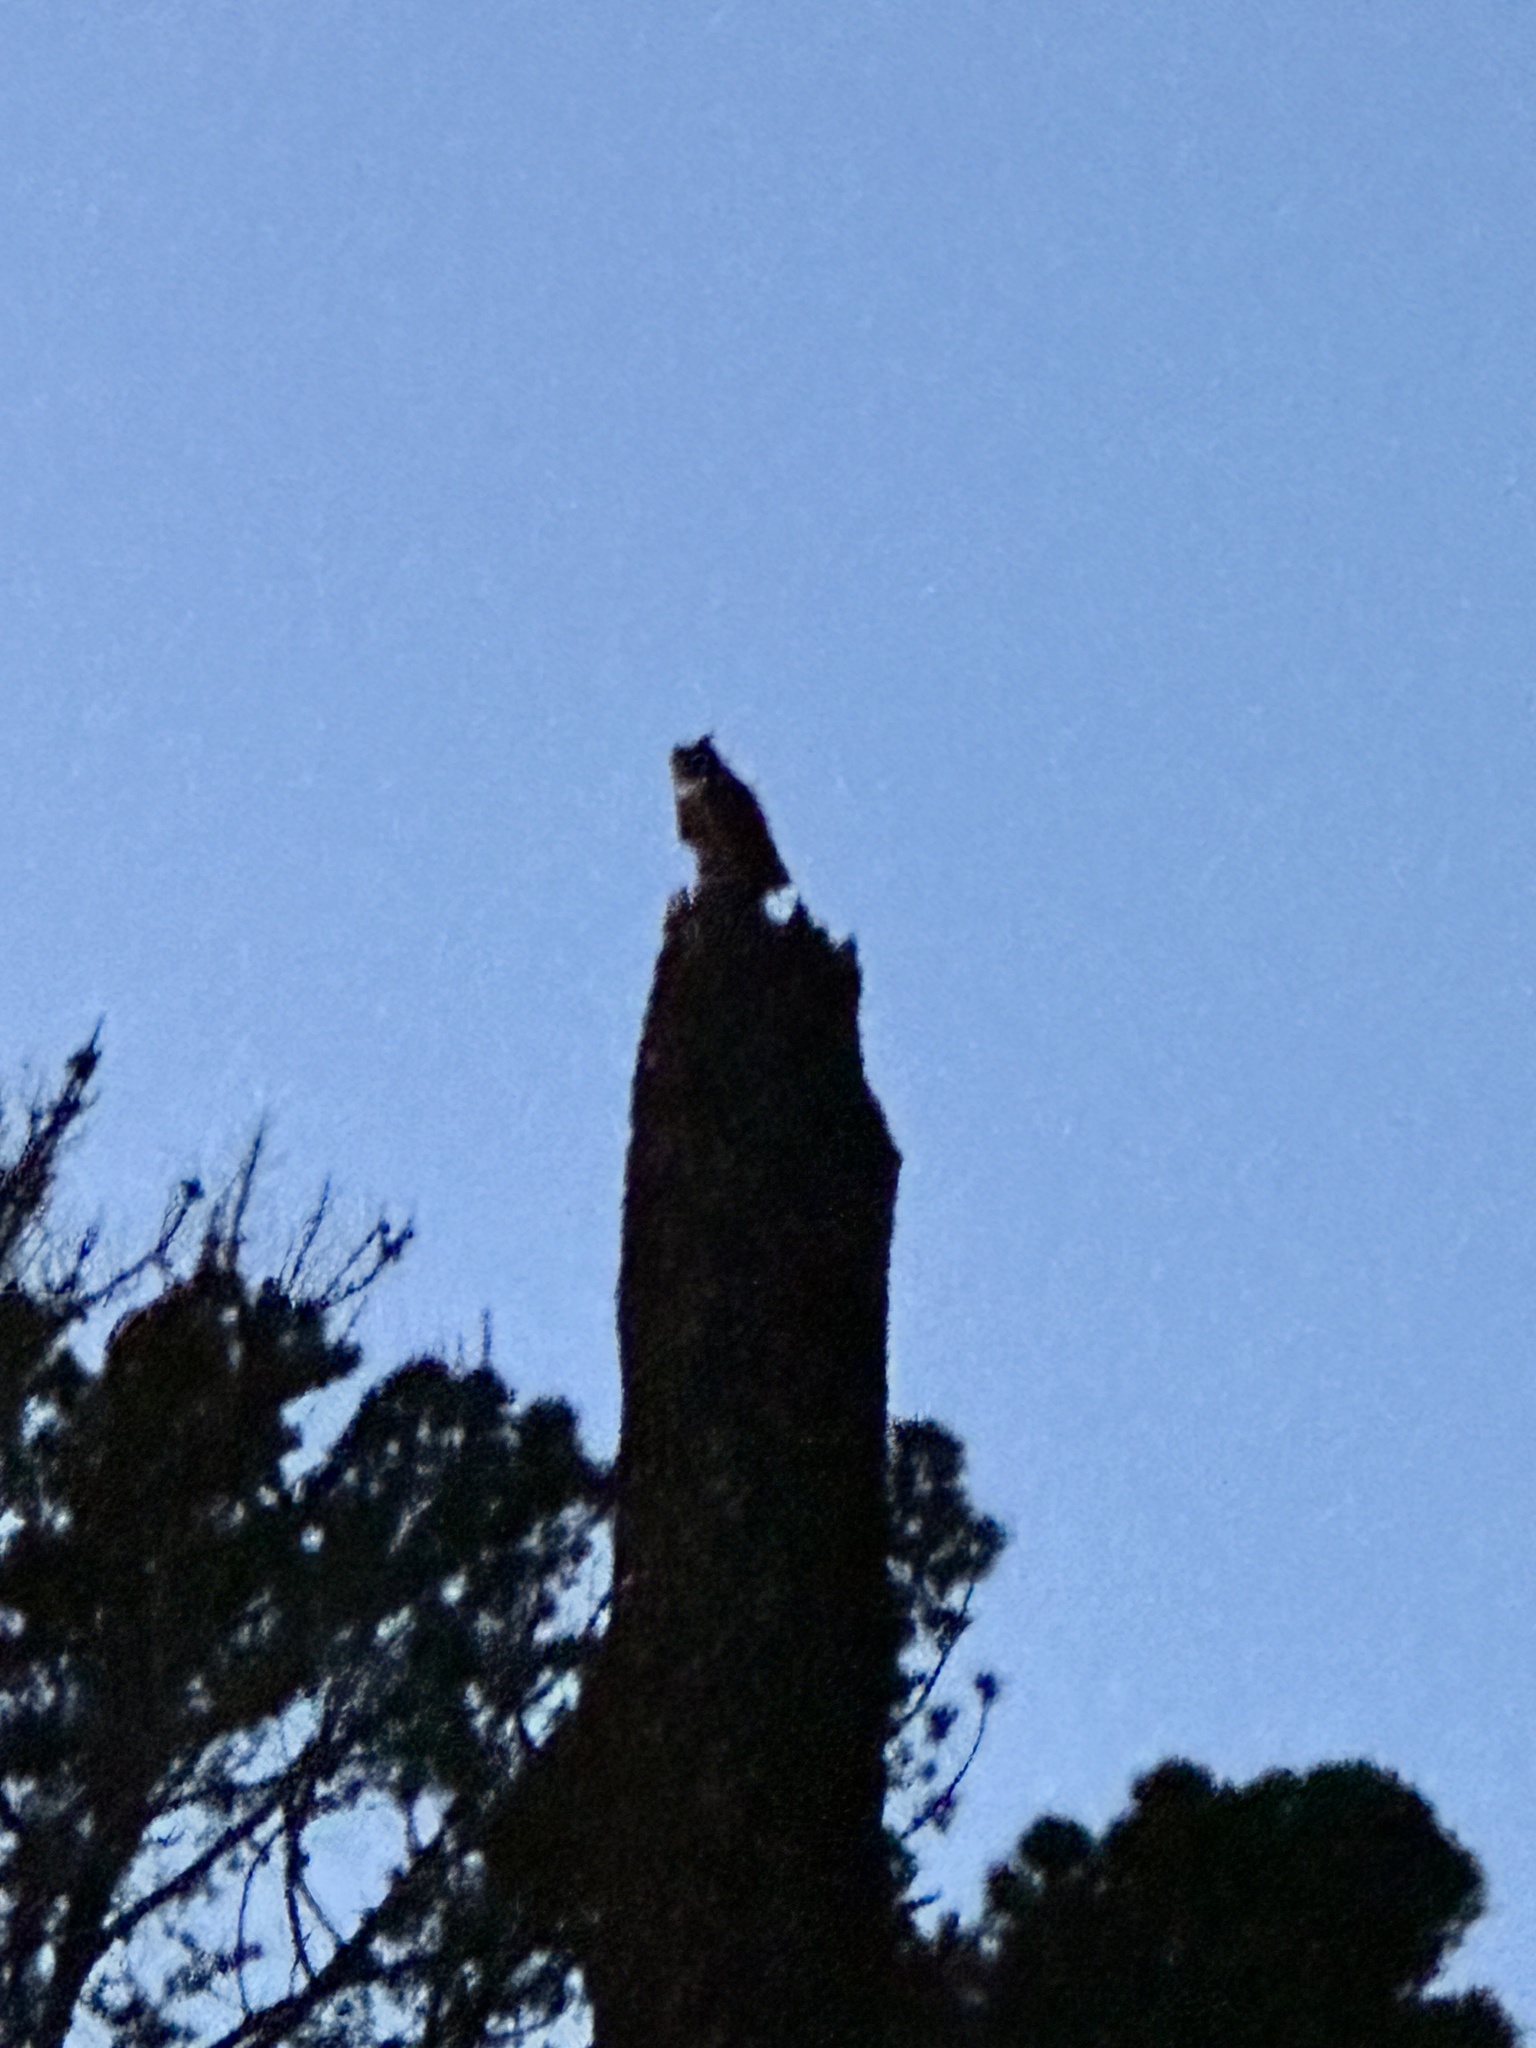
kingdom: Animalia
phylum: Chordata
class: Aves
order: Strigiformes
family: Strigidae
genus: Bubo
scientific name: Bubo virginianus
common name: Great horned owl
